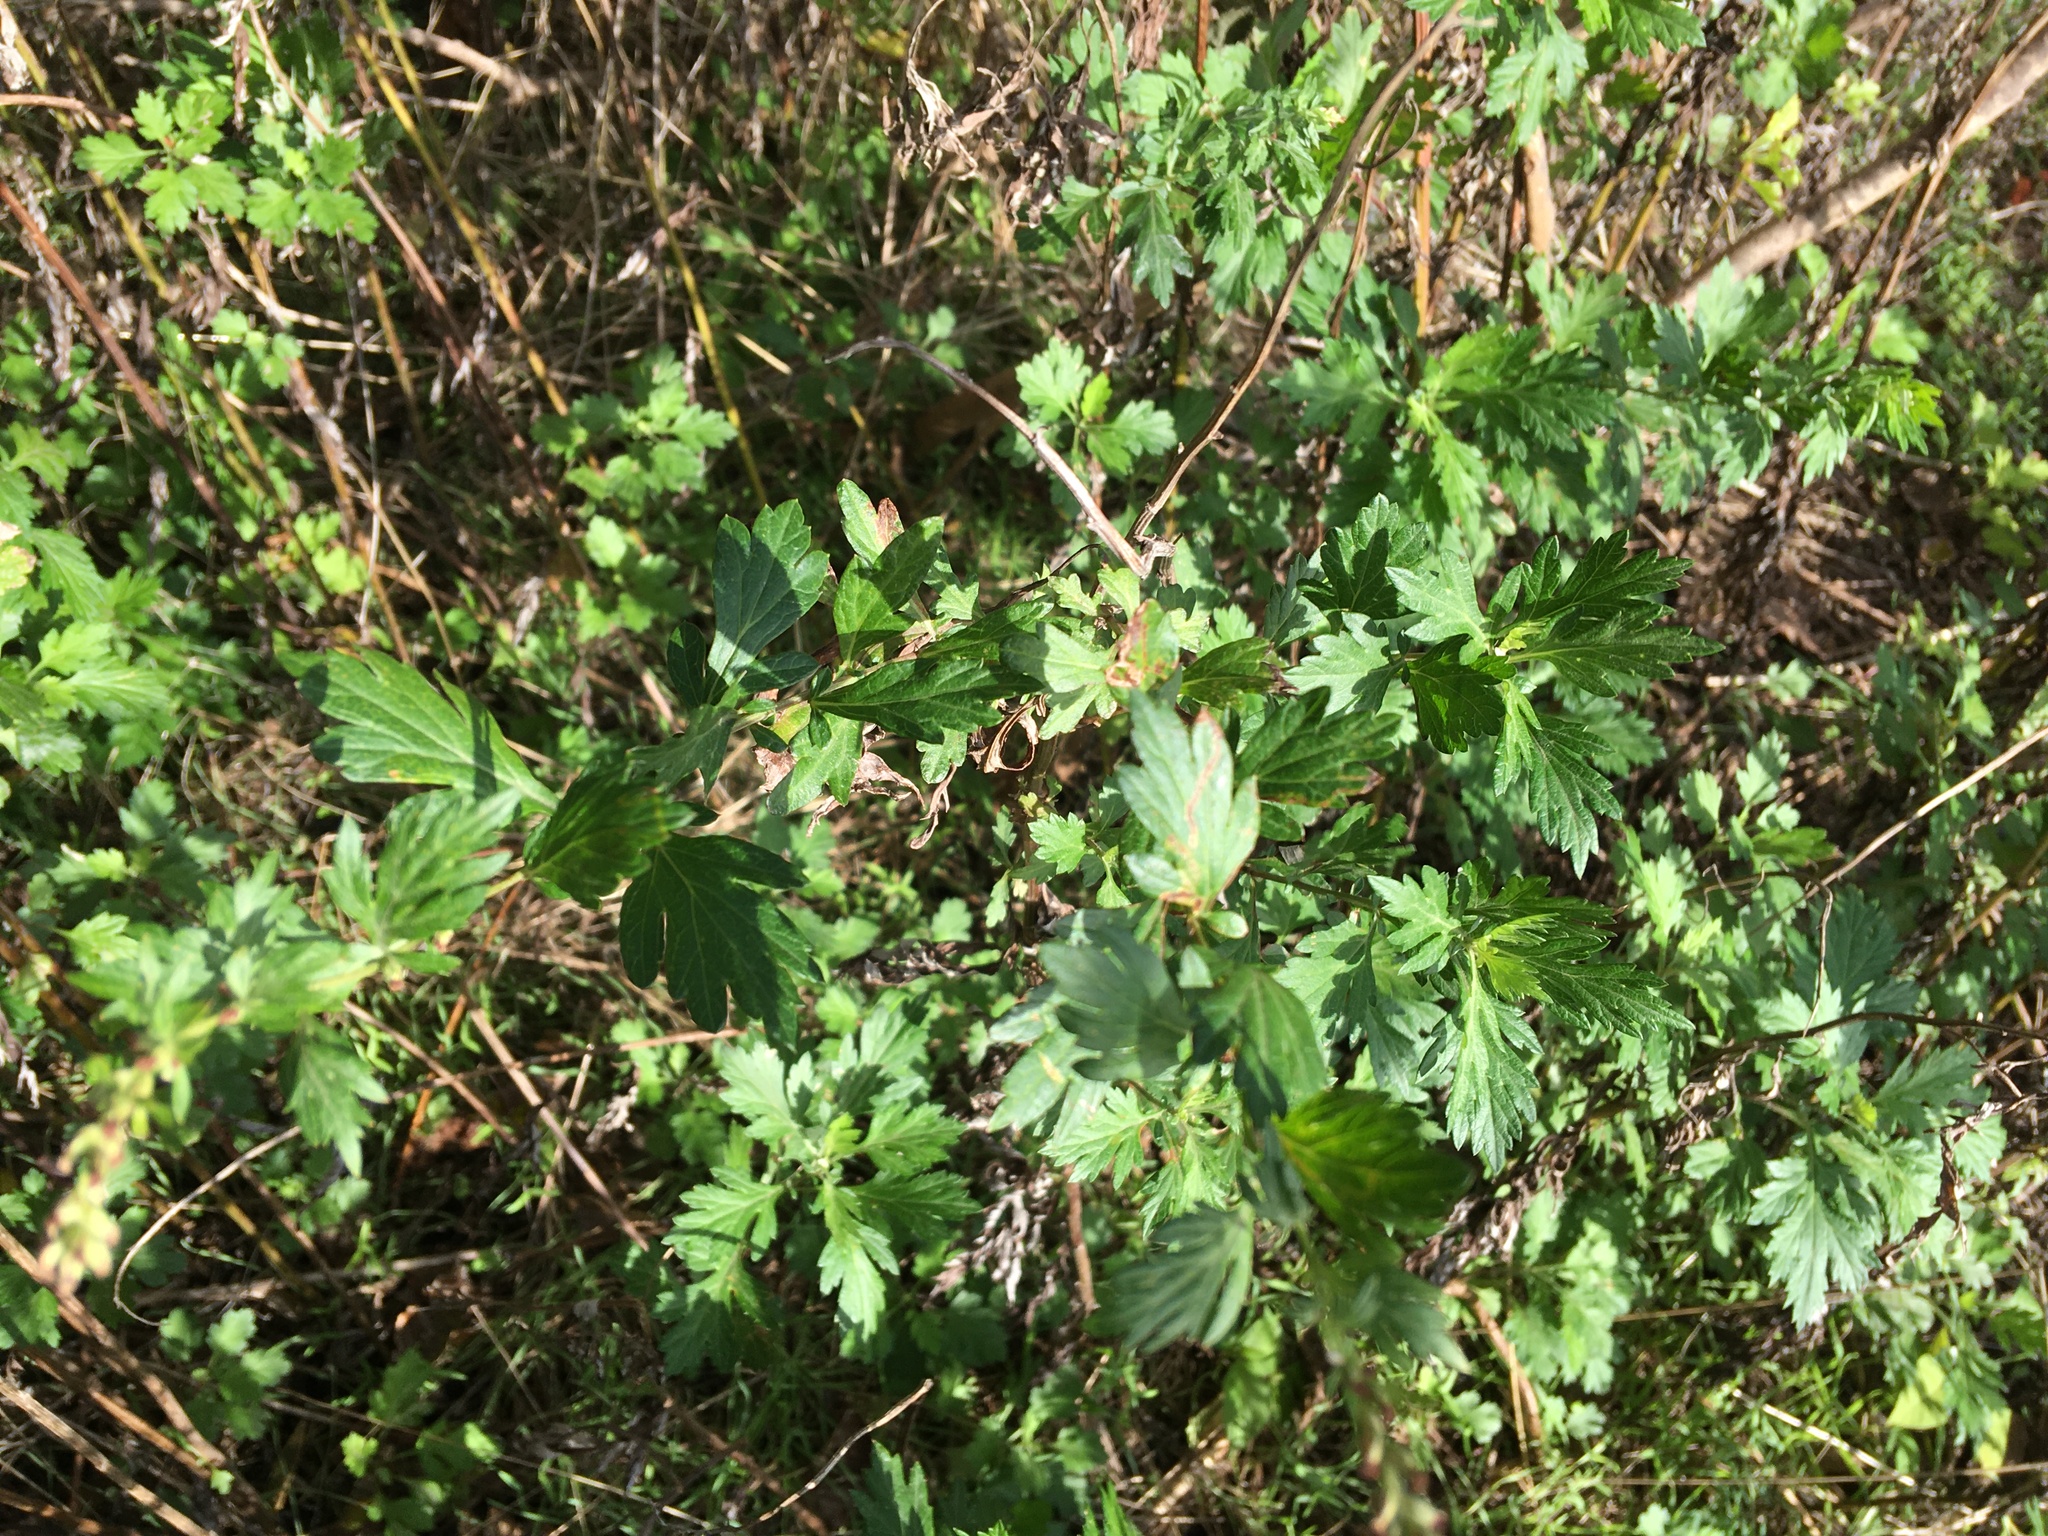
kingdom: Plantae
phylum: Tracheophyta
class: Magnoliopsida
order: Asterales
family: Asteraceae
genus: Artemisia
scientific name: Artemisia vulgaris
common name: Mugwort
